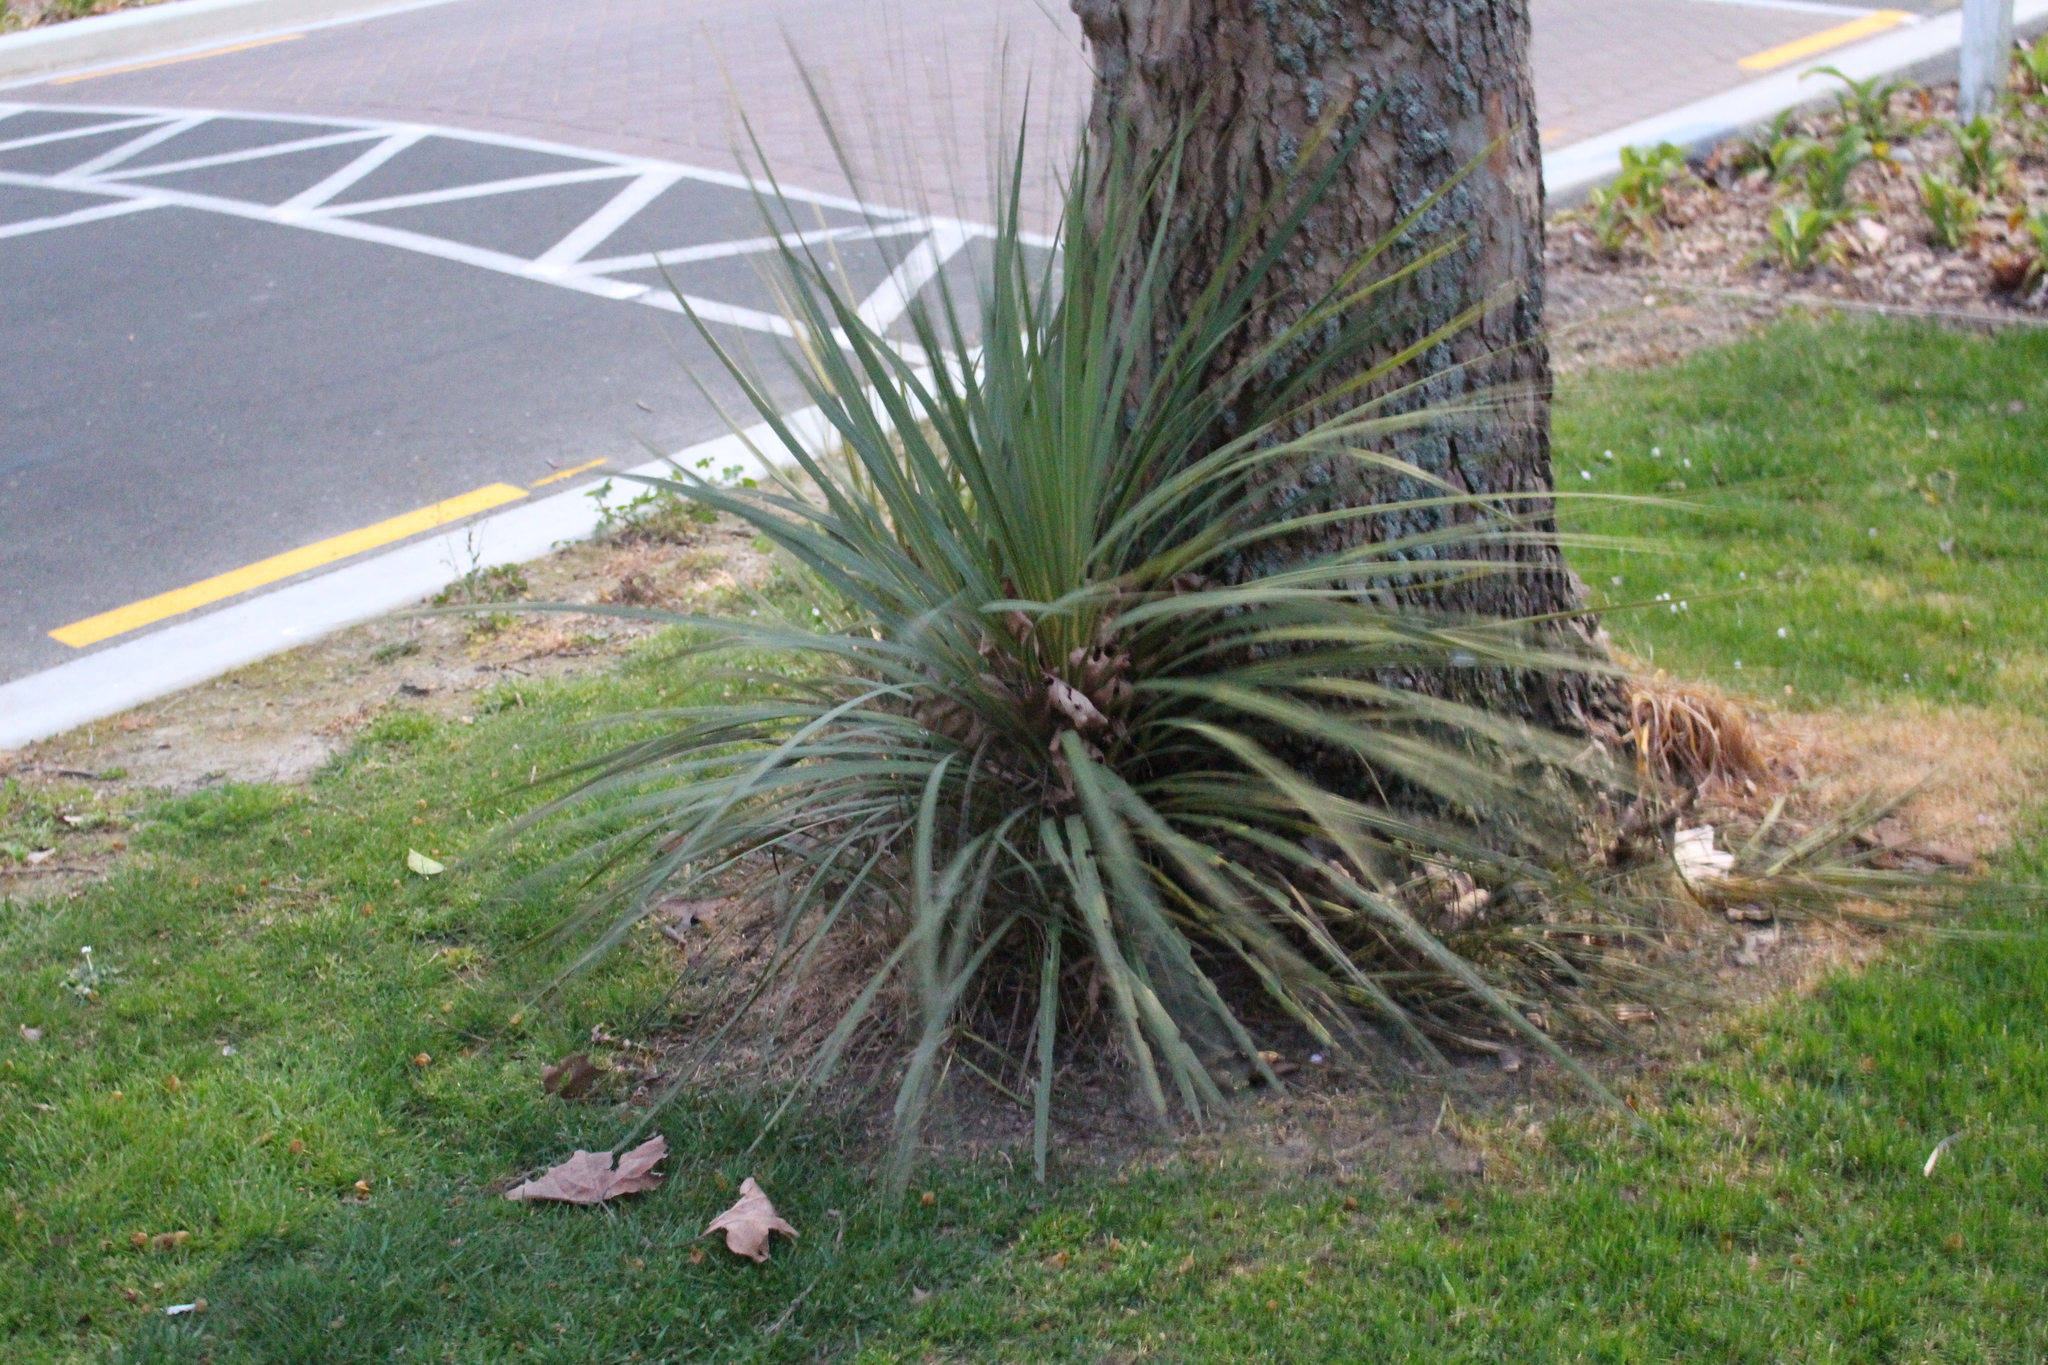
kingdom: Plantae
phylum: Tracheophyta
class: Liliopsida
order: Asparagales
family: Asparagaceae
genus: Cordyline
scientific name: Cordyline australis
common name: Cabbage-palm
